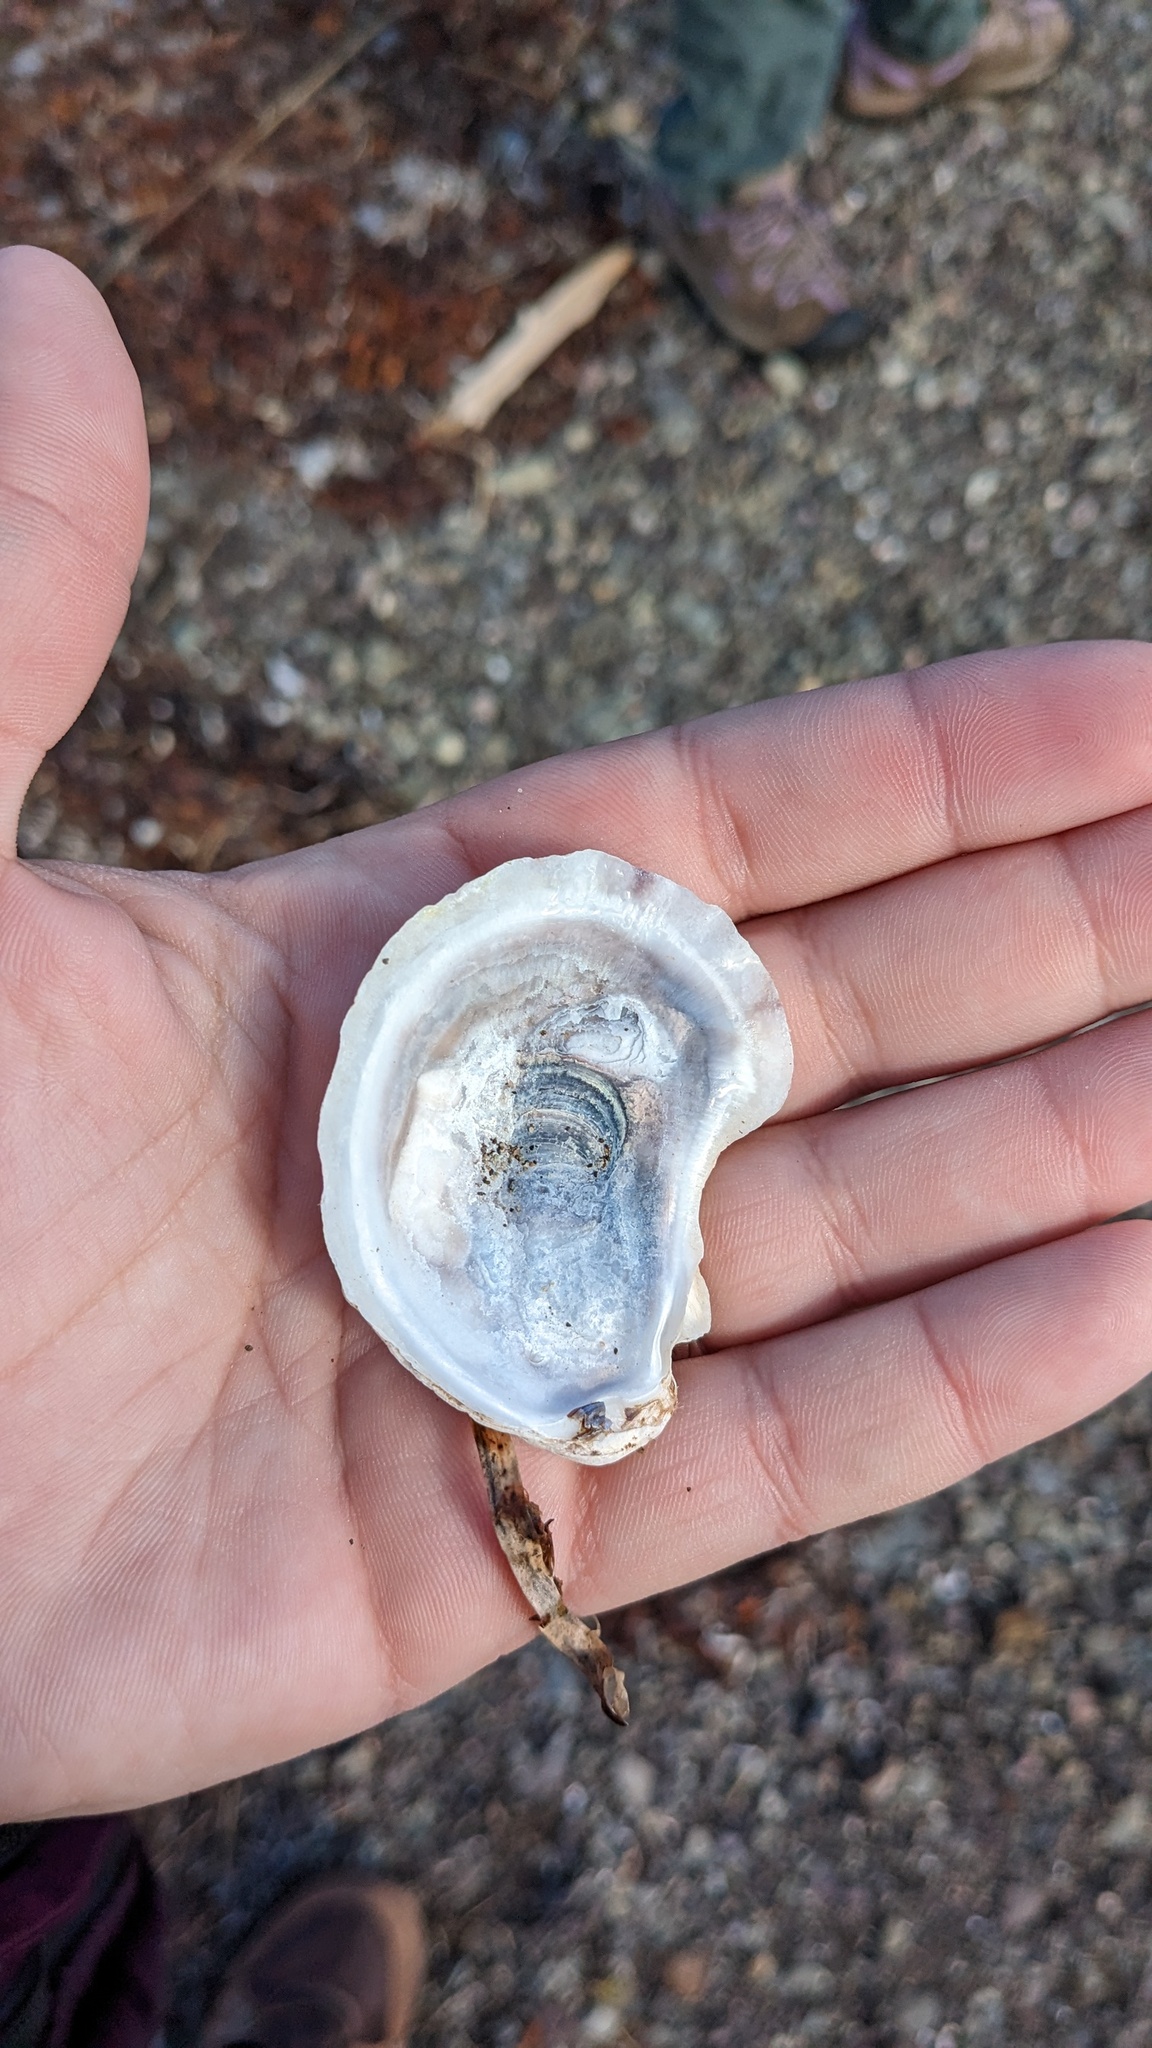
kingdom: Animalia
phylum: Mollusca
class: Bivalvia
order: Ostreida
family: Ostreidae
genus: Crassostrea
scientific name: Crassostrea virginica
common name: American oyster
